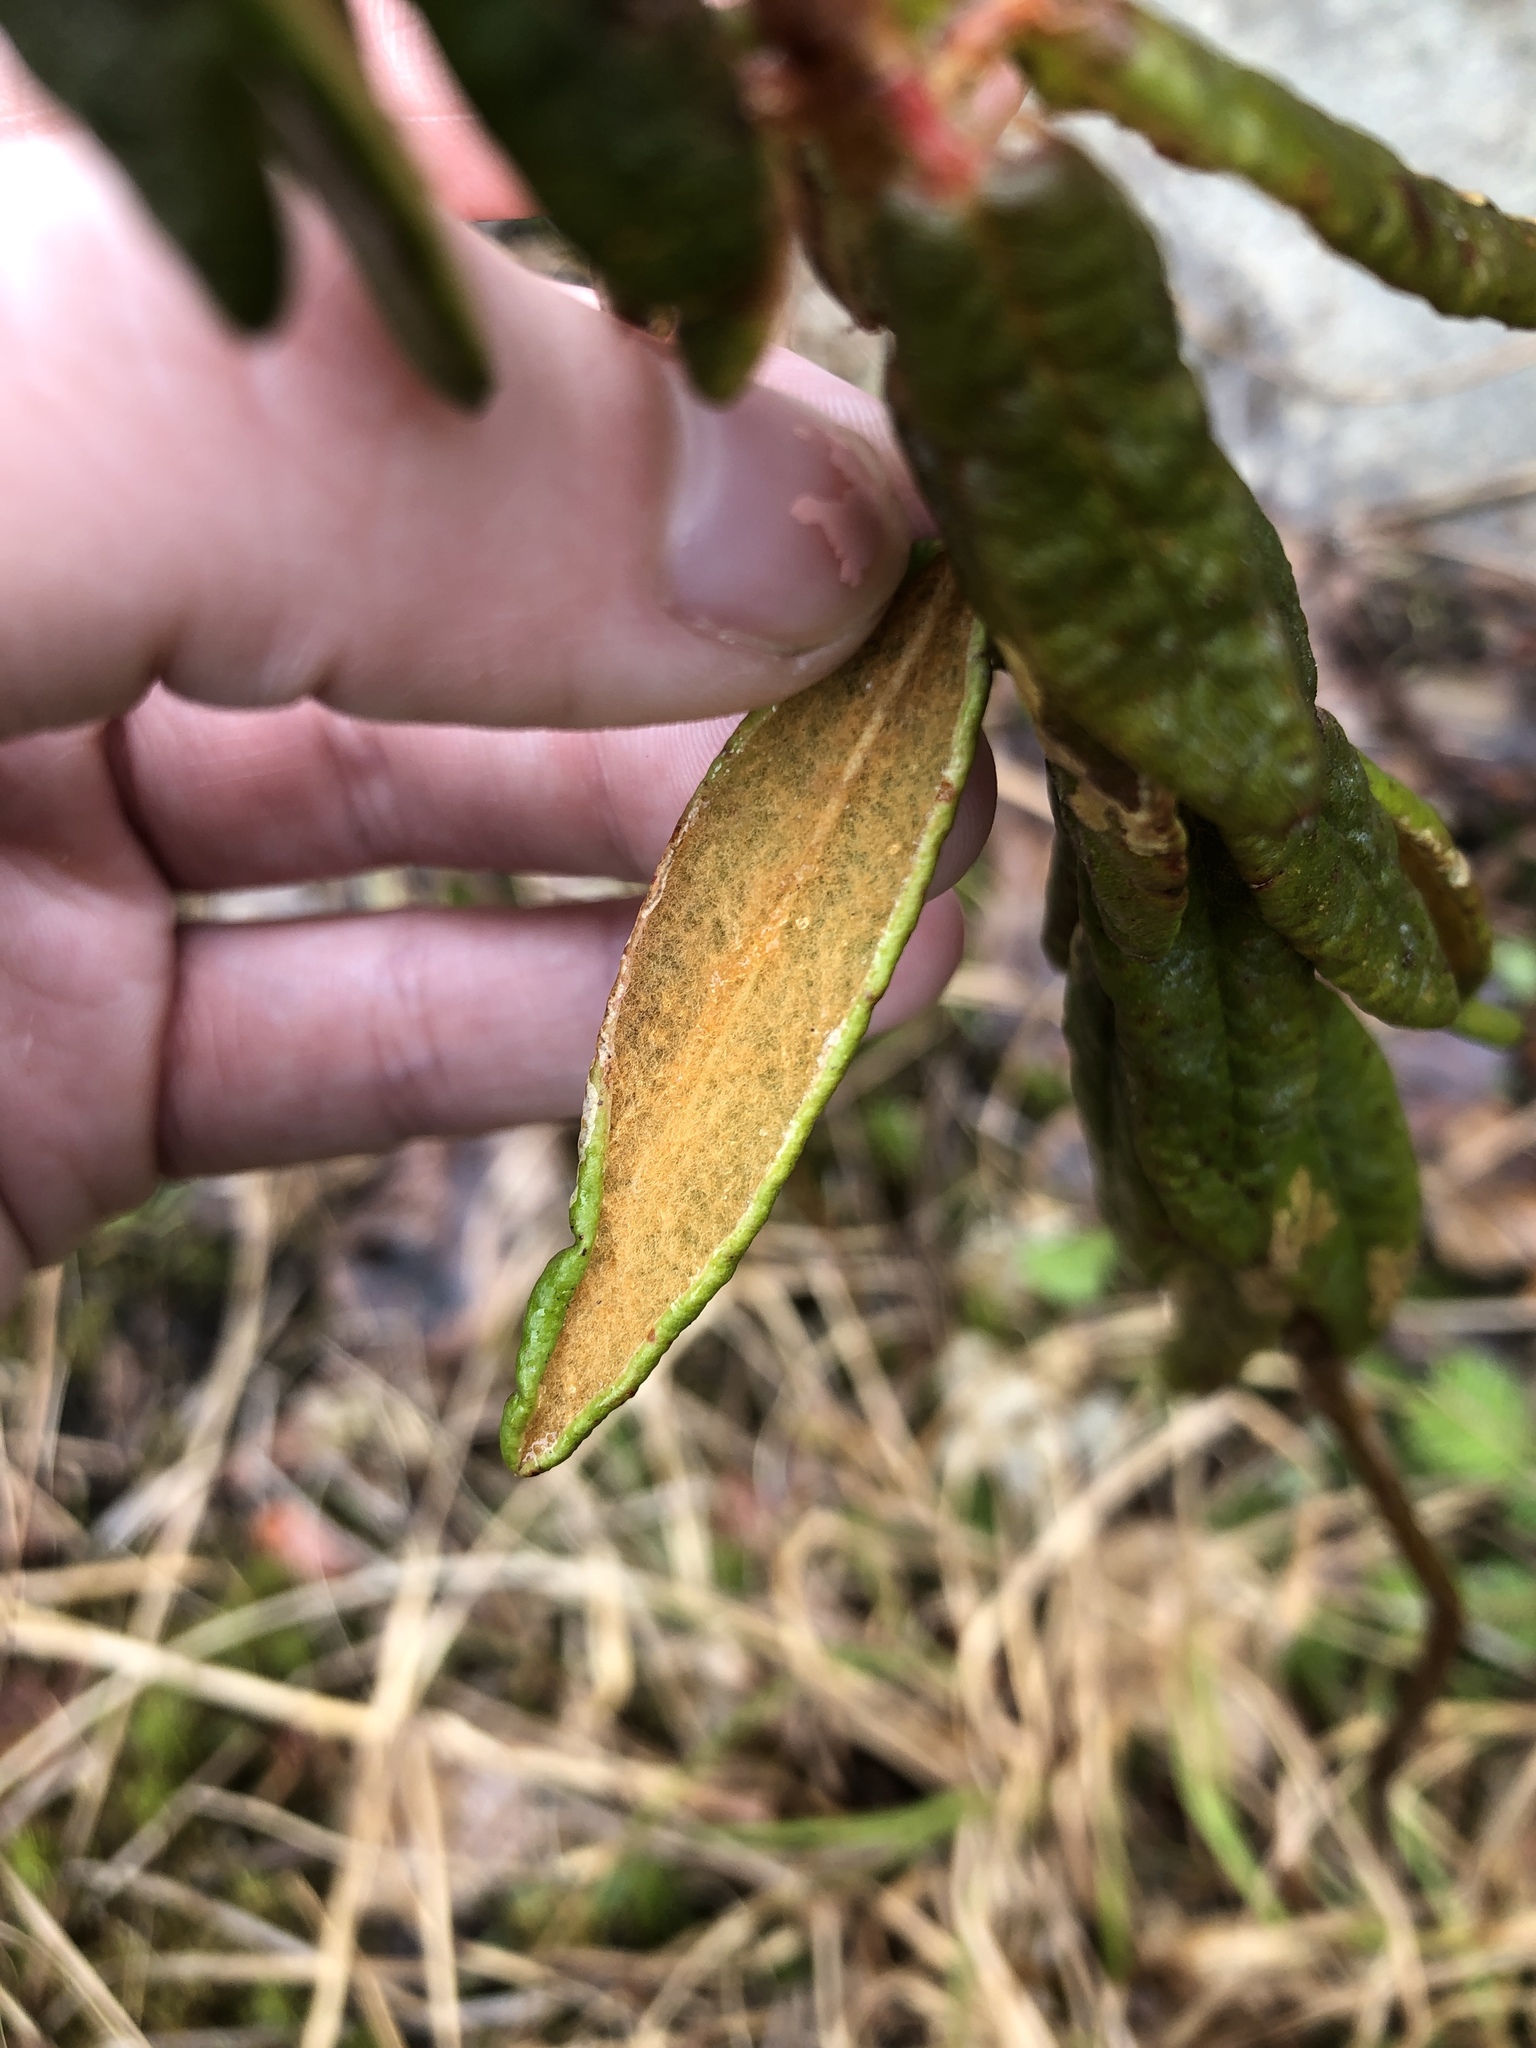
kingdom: Plantae
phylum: Tracheophyta
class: Magnoliopsida
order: Ericales
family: Ericaceae
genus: Rhododendron
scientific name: Rhododendron groenlandicum
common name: Bog labrador tea
